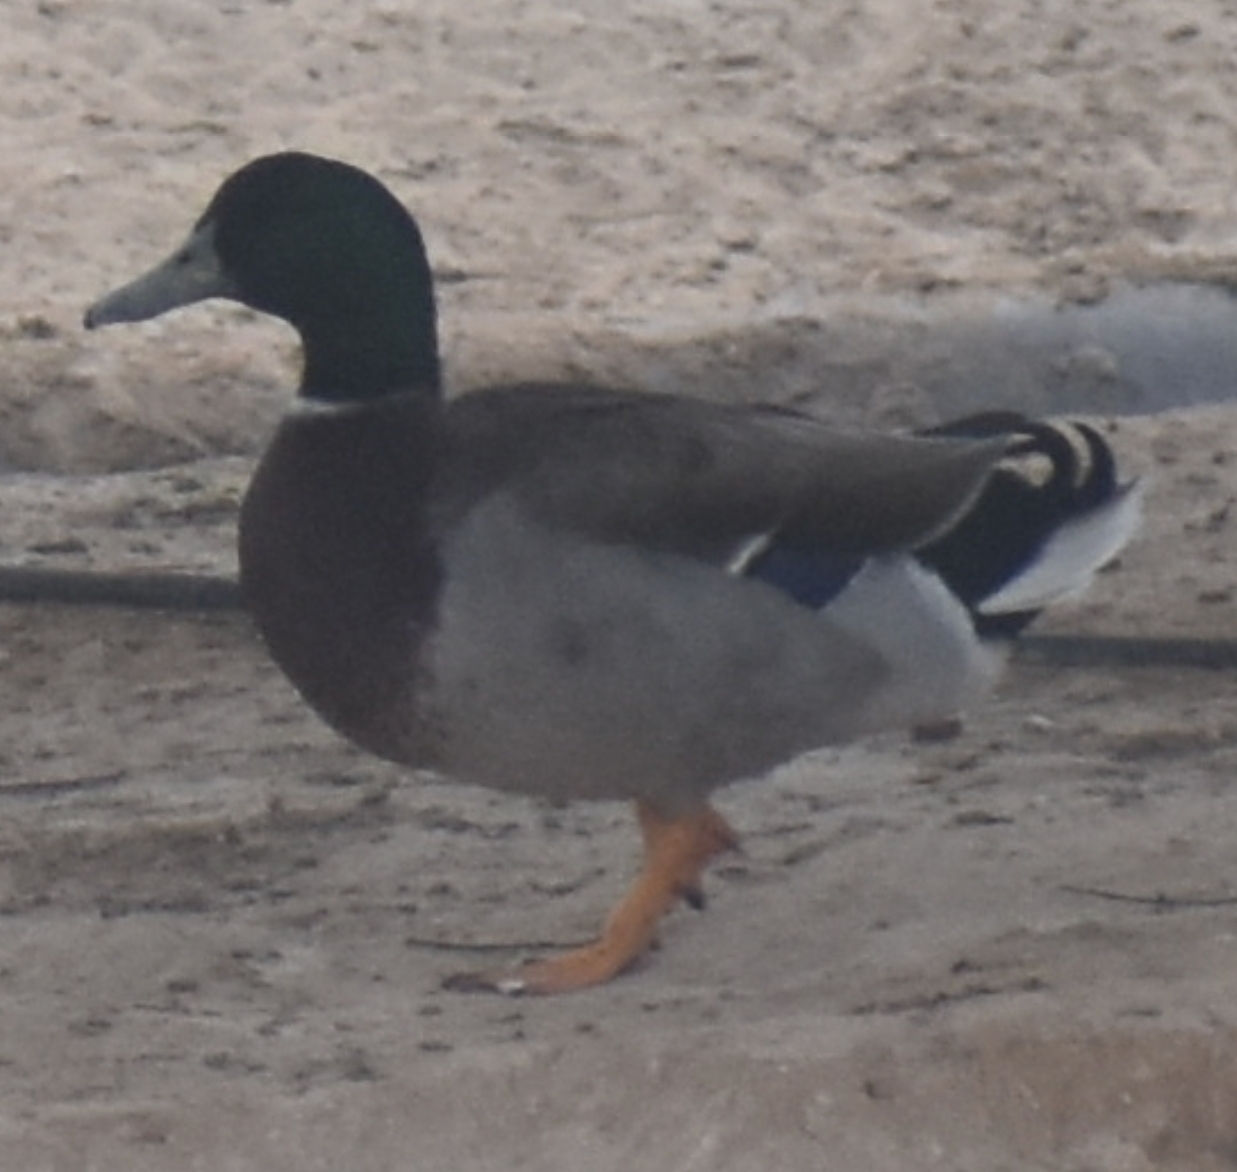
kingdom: Animalia
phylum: Chordata
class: Aves
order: Anseriformes
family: Anatidae
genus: Anas
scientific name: Anas platyrhynchos
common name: Mallard
